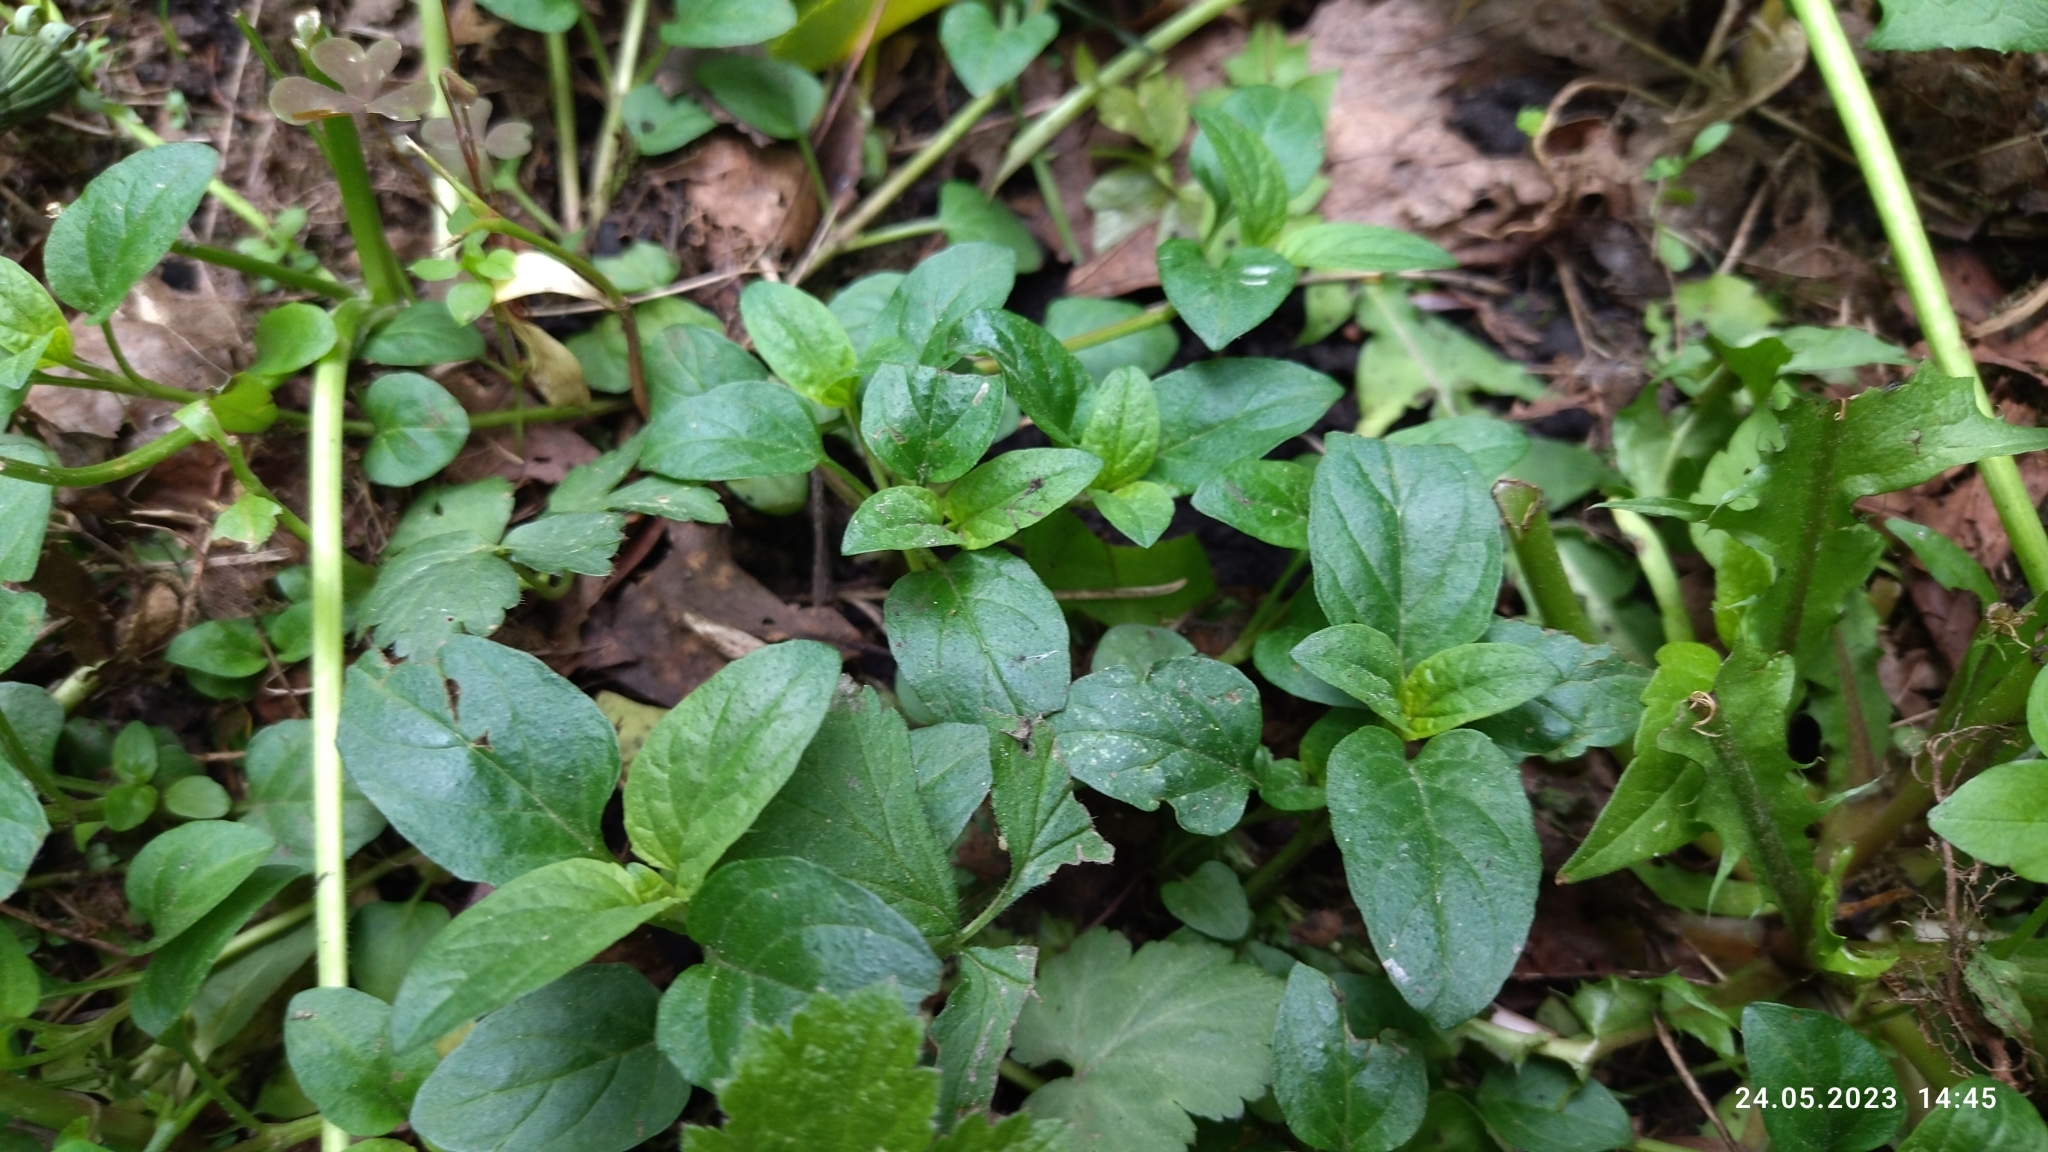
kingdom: Plantae
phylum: Tracheophyta
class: Magnoliopsida
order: Lamiales
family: Lamiaceae
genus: Prunella
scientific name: Prunella vulgaris
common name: Heal-all
